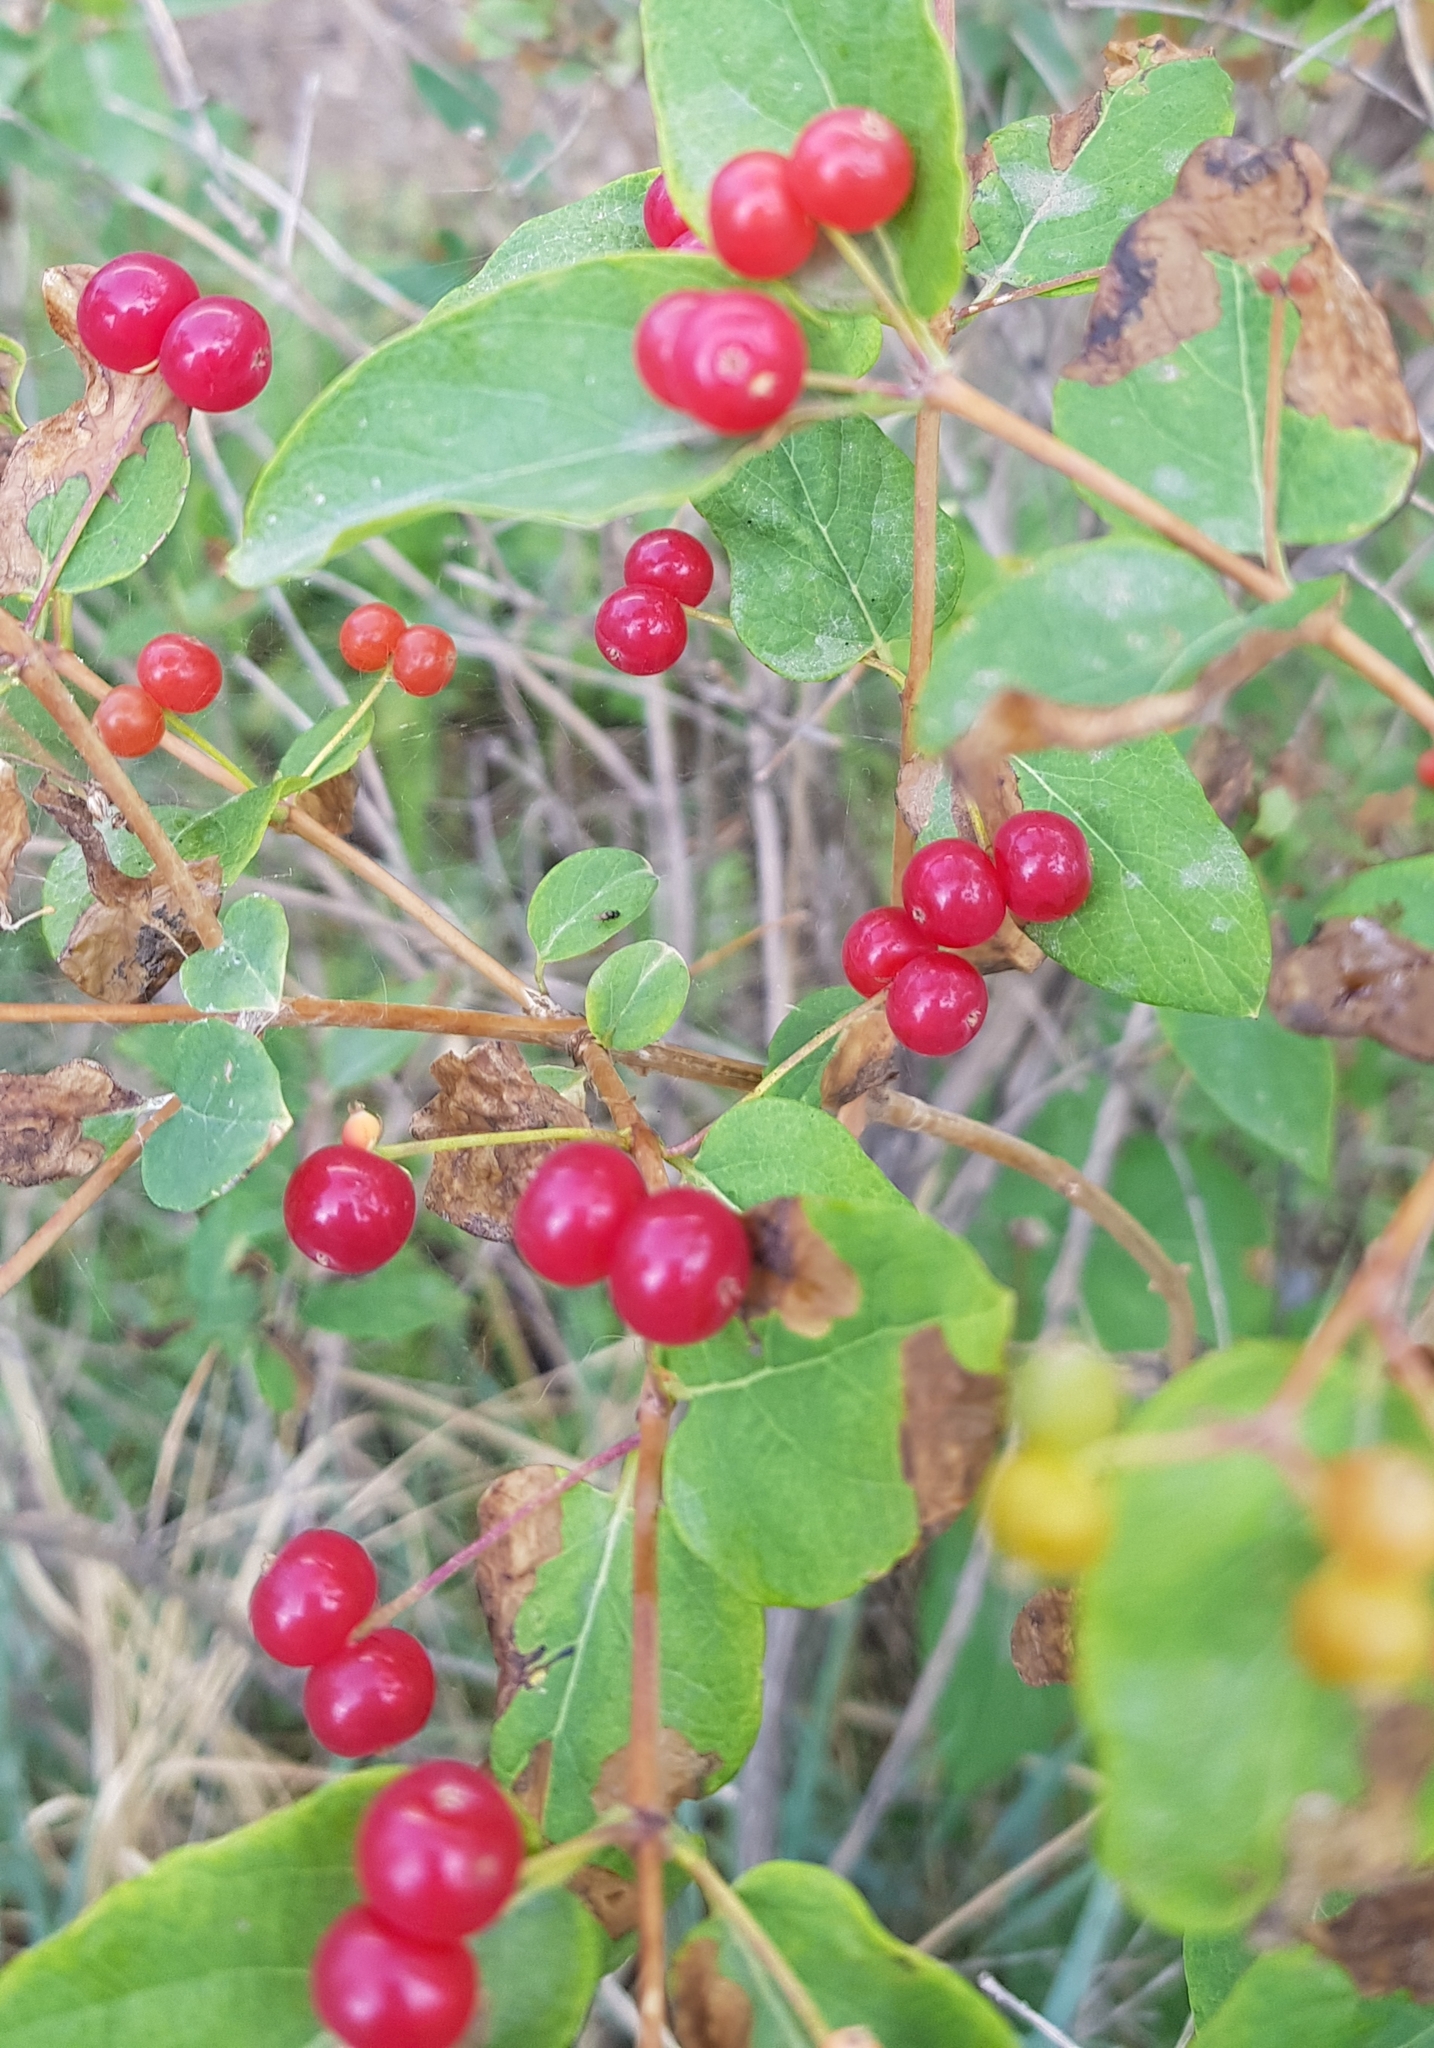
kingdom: Plantae
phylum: Tracheophyta
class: Magnoliopsida
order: Dipsacales
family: Caprifoliaceae
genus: Lonicera
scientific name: Lonicera tatarica
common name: Tatarian honeysuckle
